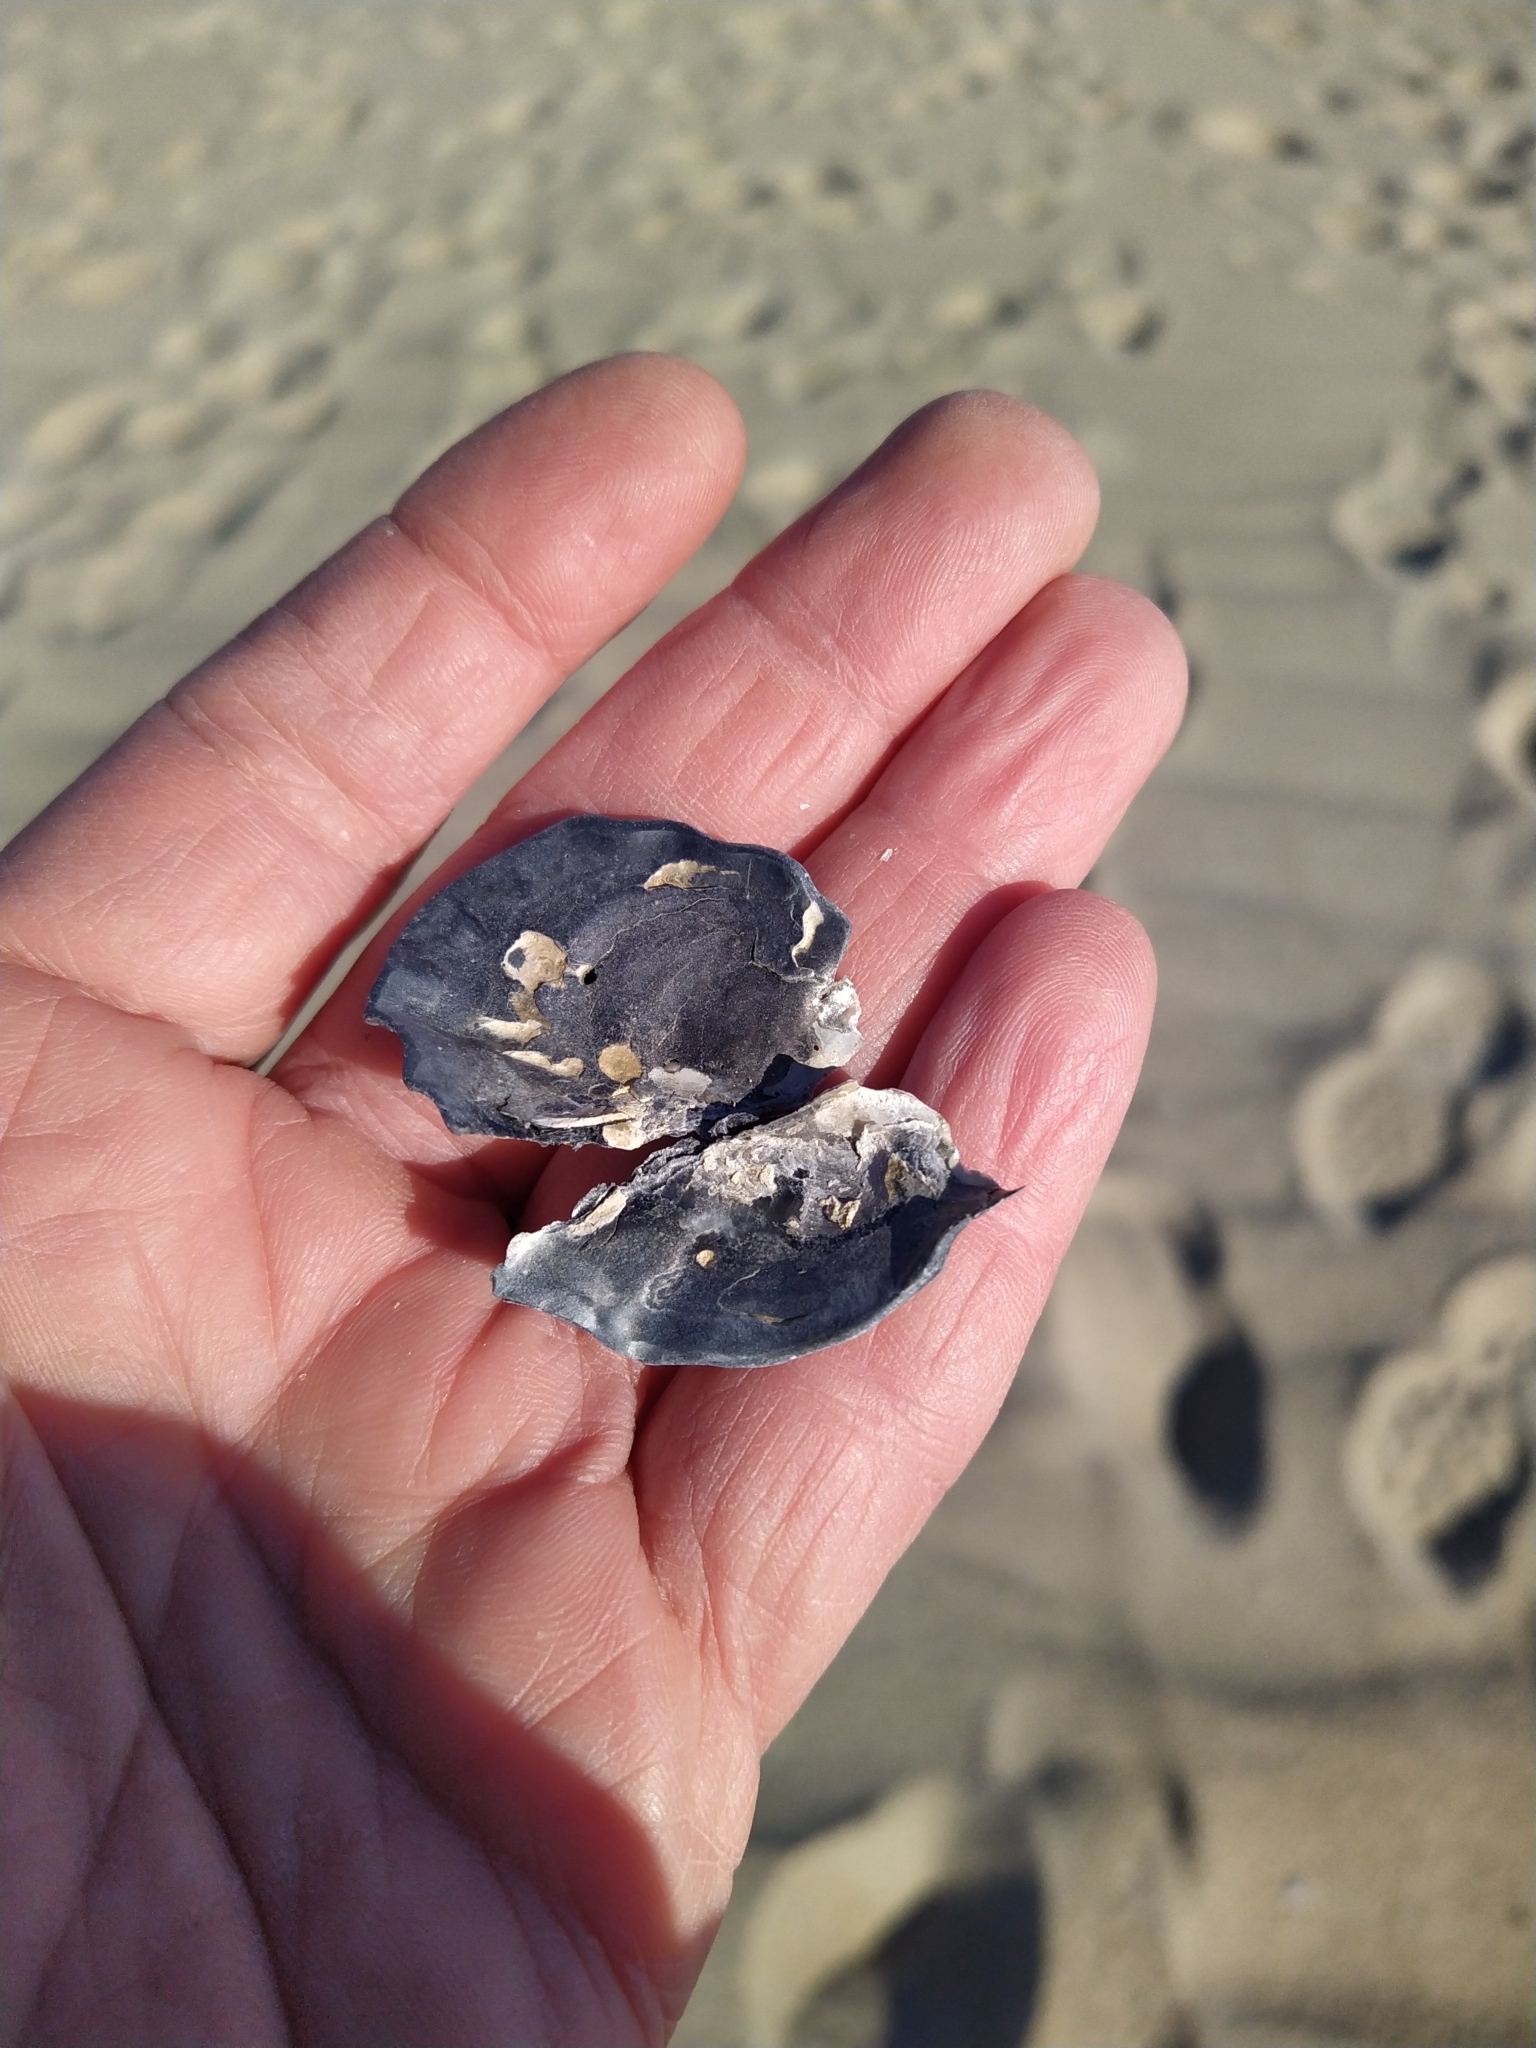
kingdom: Animalia
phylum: Mollusca
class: Bivalvia
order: Ostreida
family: Ostreidae
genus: Crassostrea
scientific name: Crassostrea virginica
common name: American oyster
